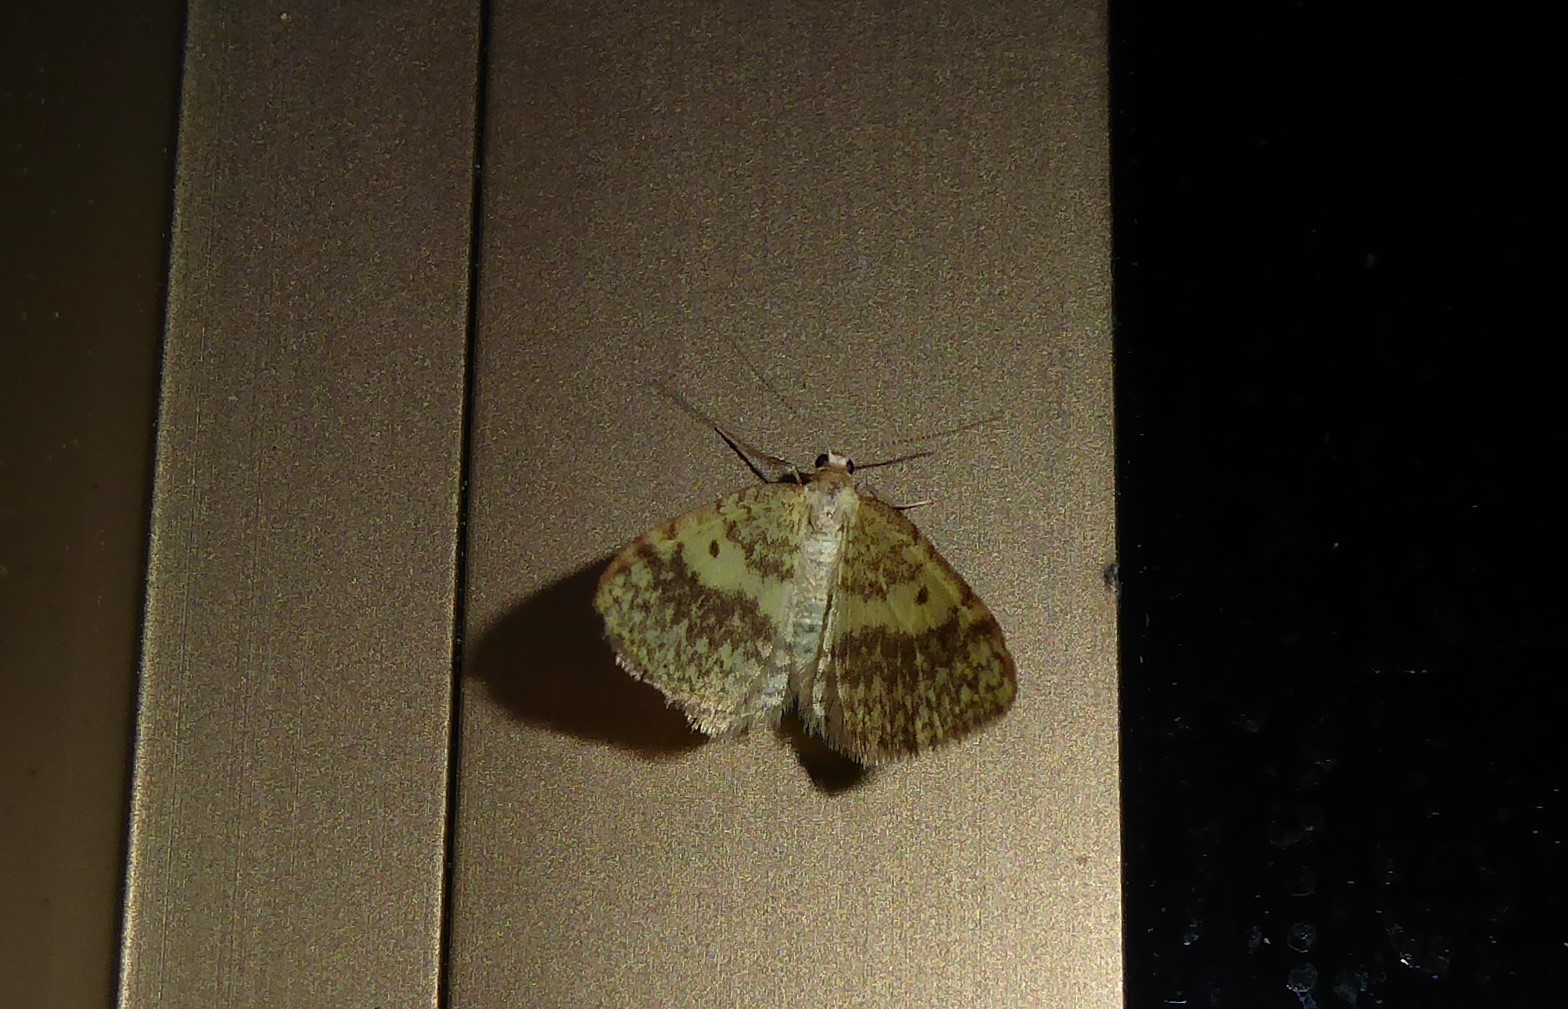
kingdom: Animalia
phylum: Arthropoda
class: Insecta
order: Lepidoptera
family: Geometridae
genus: Epiphryne
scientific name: Epiphryne undosata
